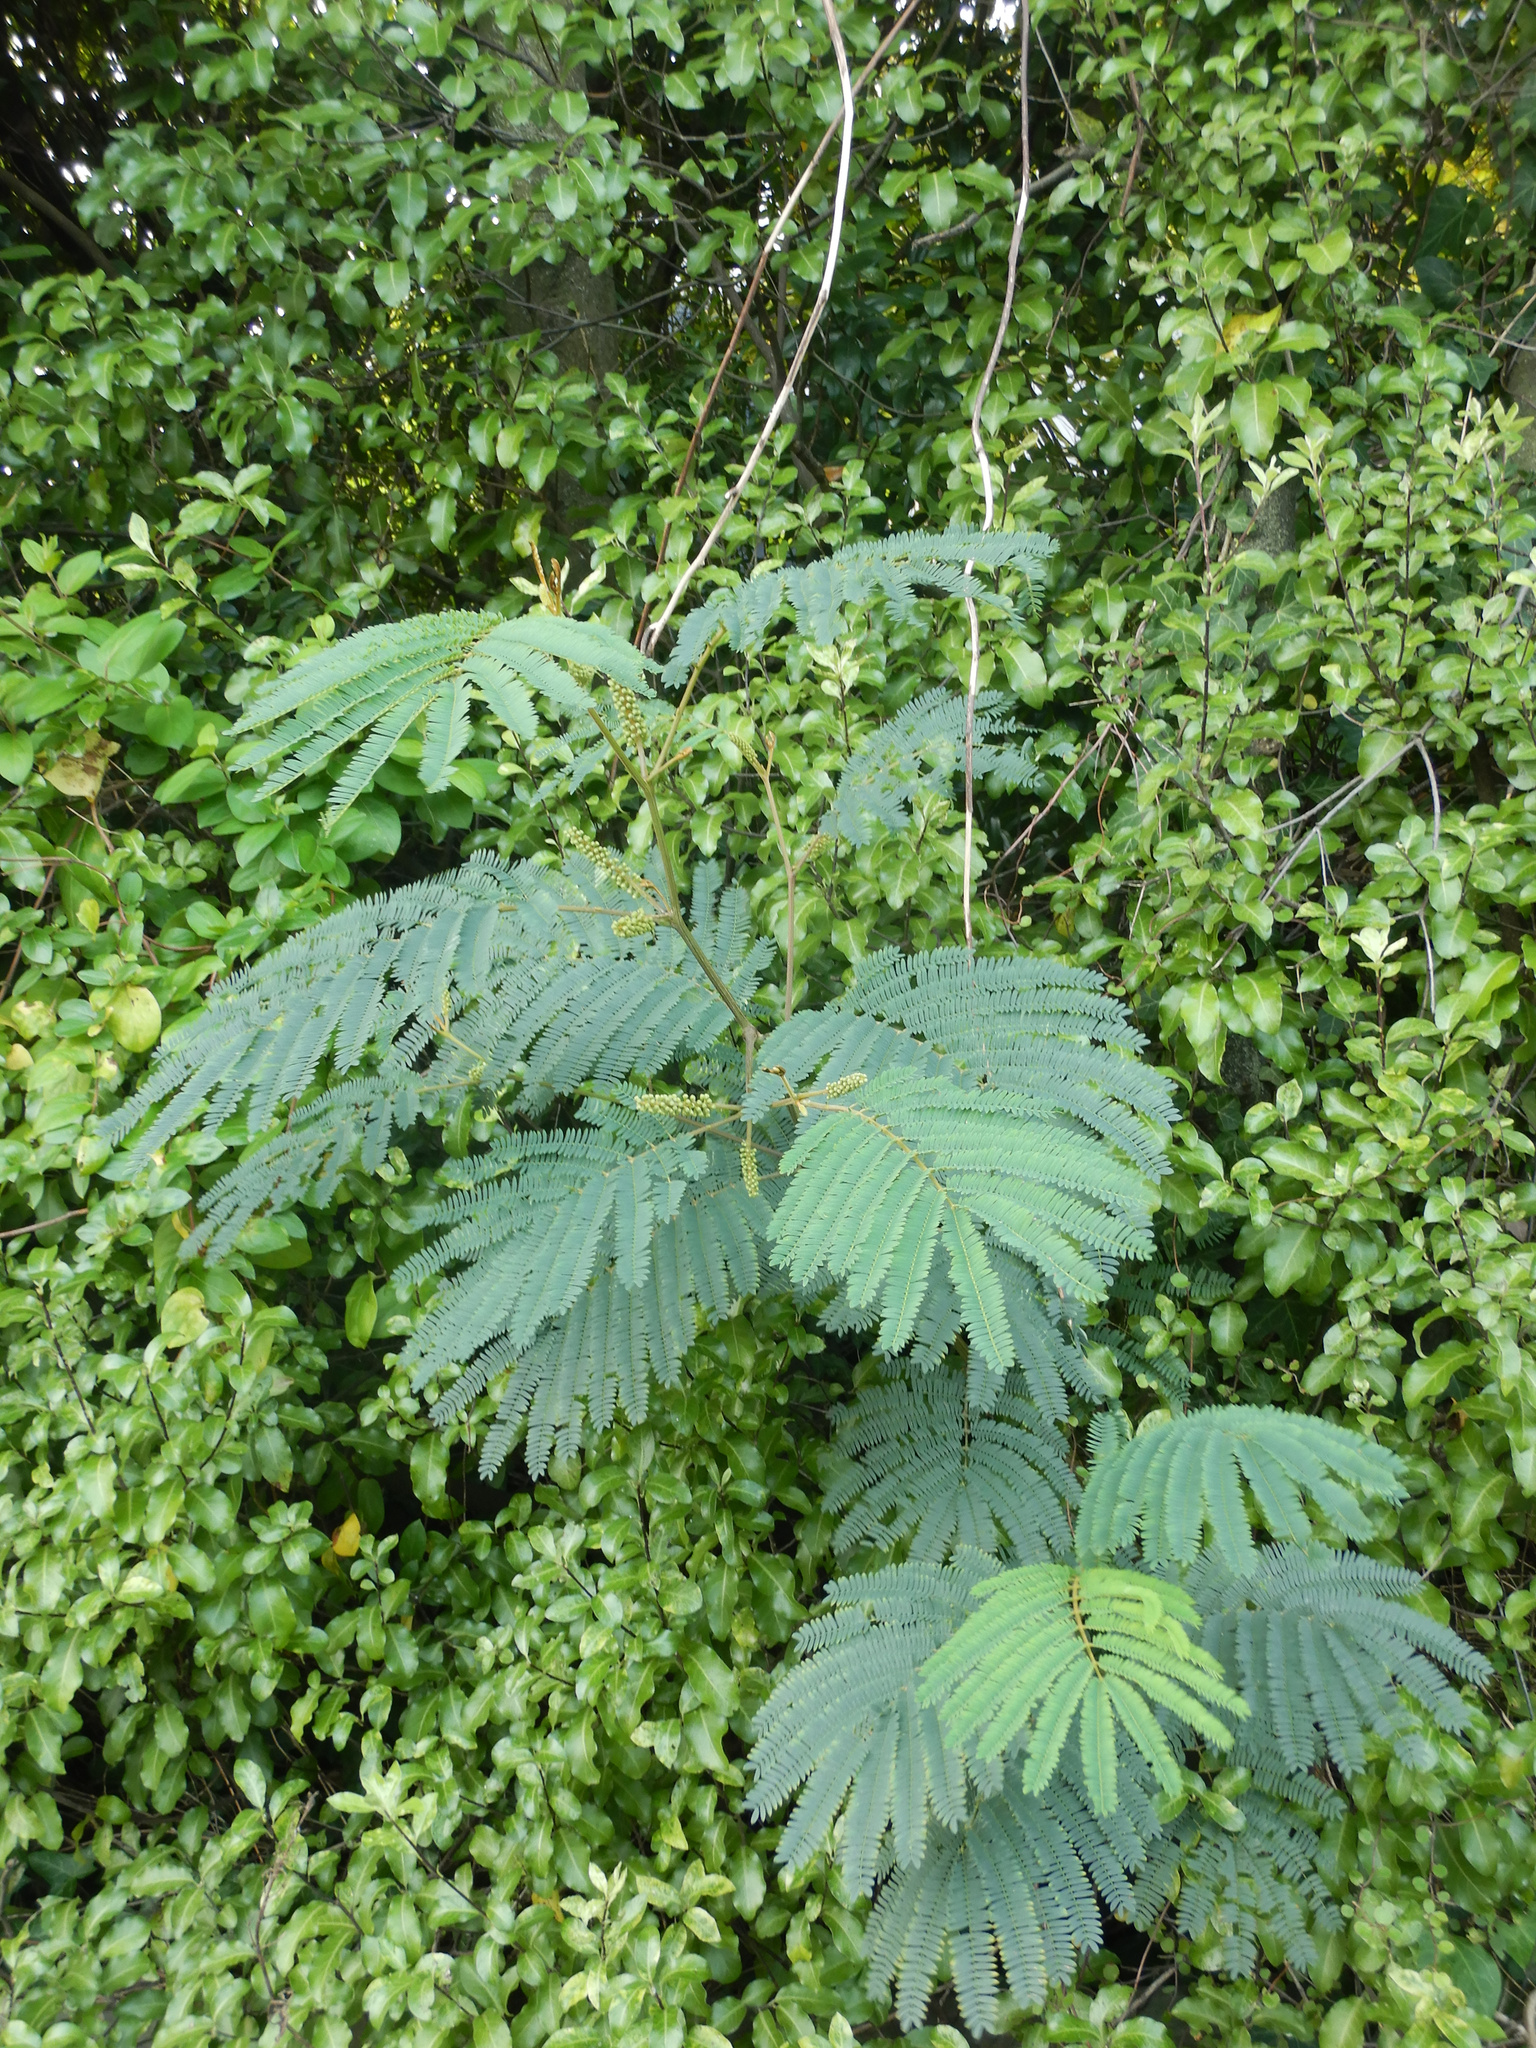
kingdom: Plantae
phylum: Tracheophyta
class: Magnoliopsida
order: Fabales
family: Fabaceae
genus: Paraserianthes
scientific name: Paraserianthes lophantha
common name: Plume albizia
